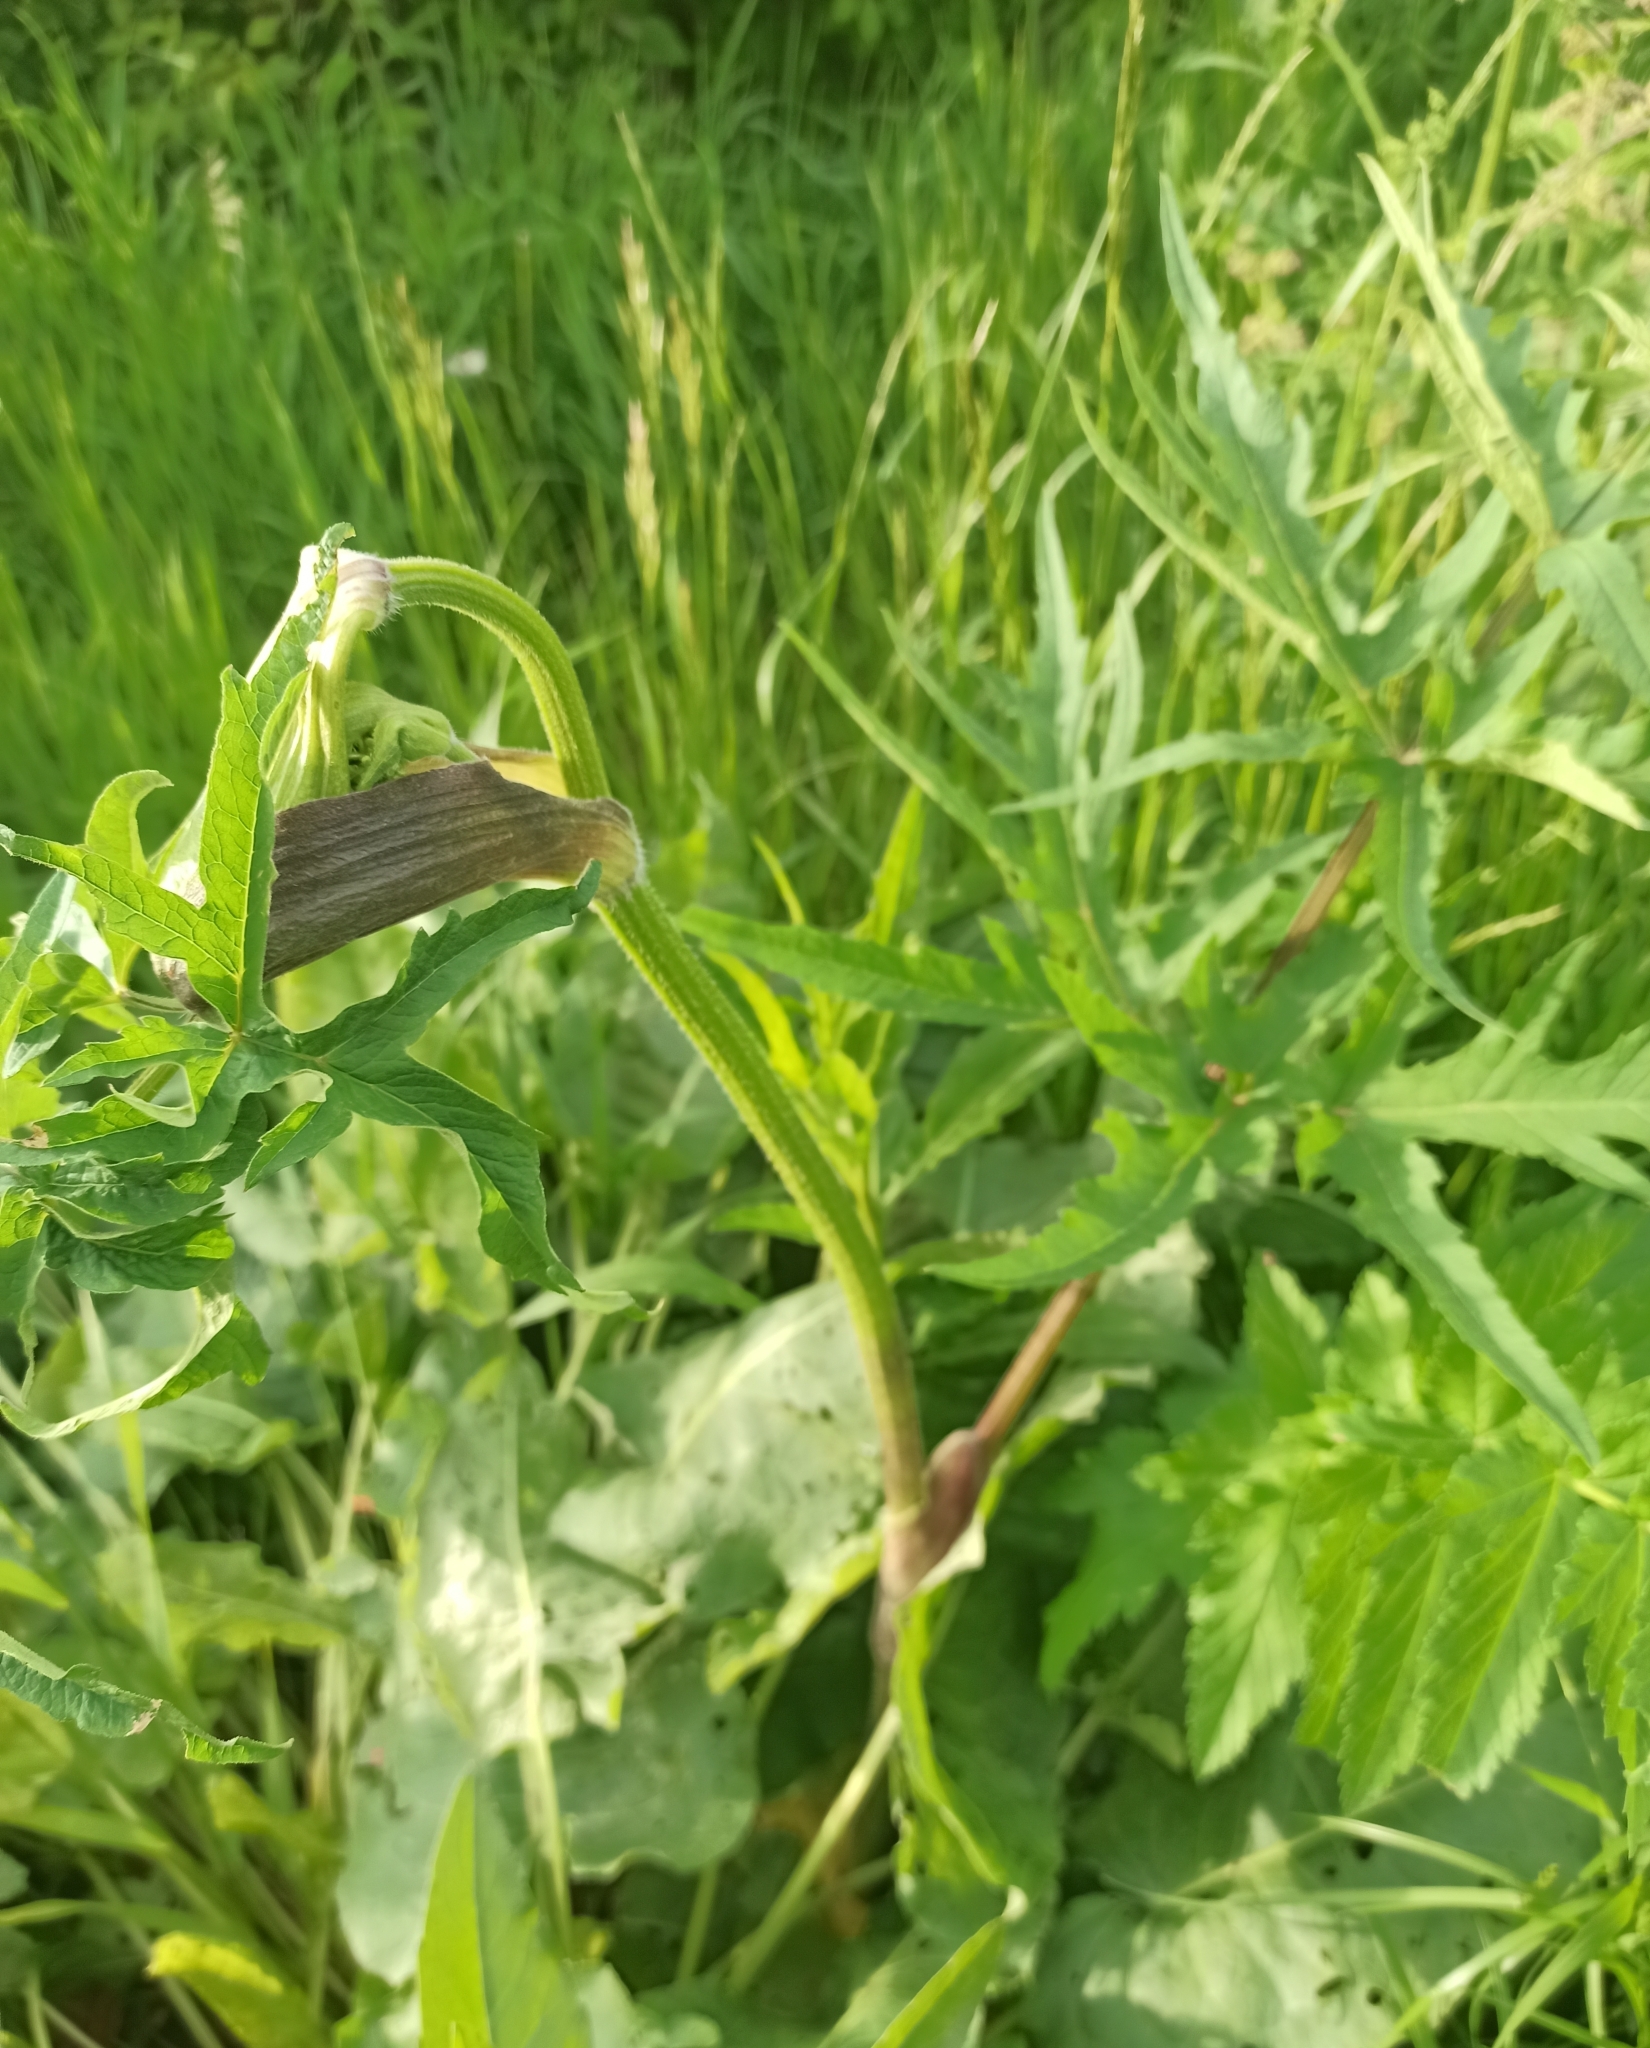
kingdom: Plantae
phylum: Tracheophyta
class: Magnoliopsida
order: Apiales
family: Apiaceae
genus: Heracleum
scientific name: Heracleum sphondylium
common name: Hogweed
